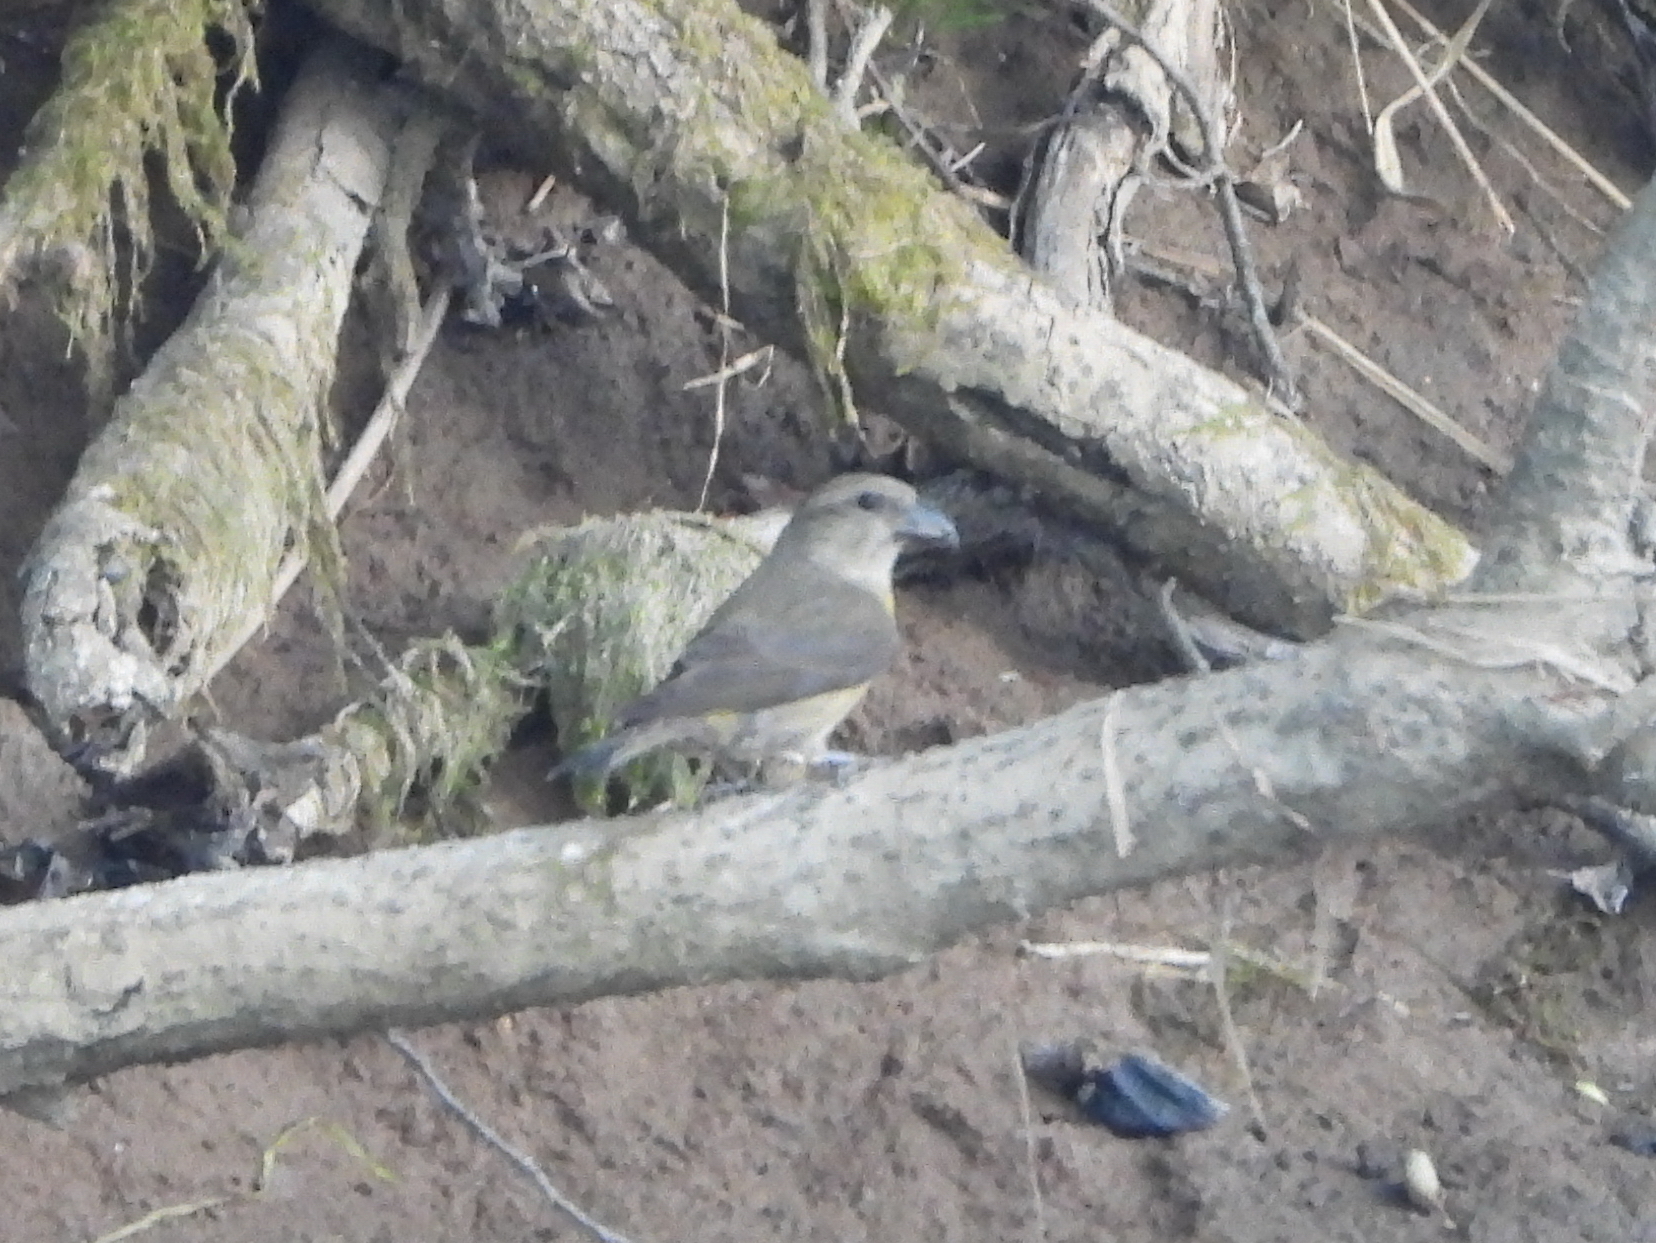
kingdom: Animalia
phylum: Chordata
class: Aves
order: Passeriformes
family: Fringillidae
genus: Loxia
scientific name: Loxia curvirostra
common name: Red crossbill
